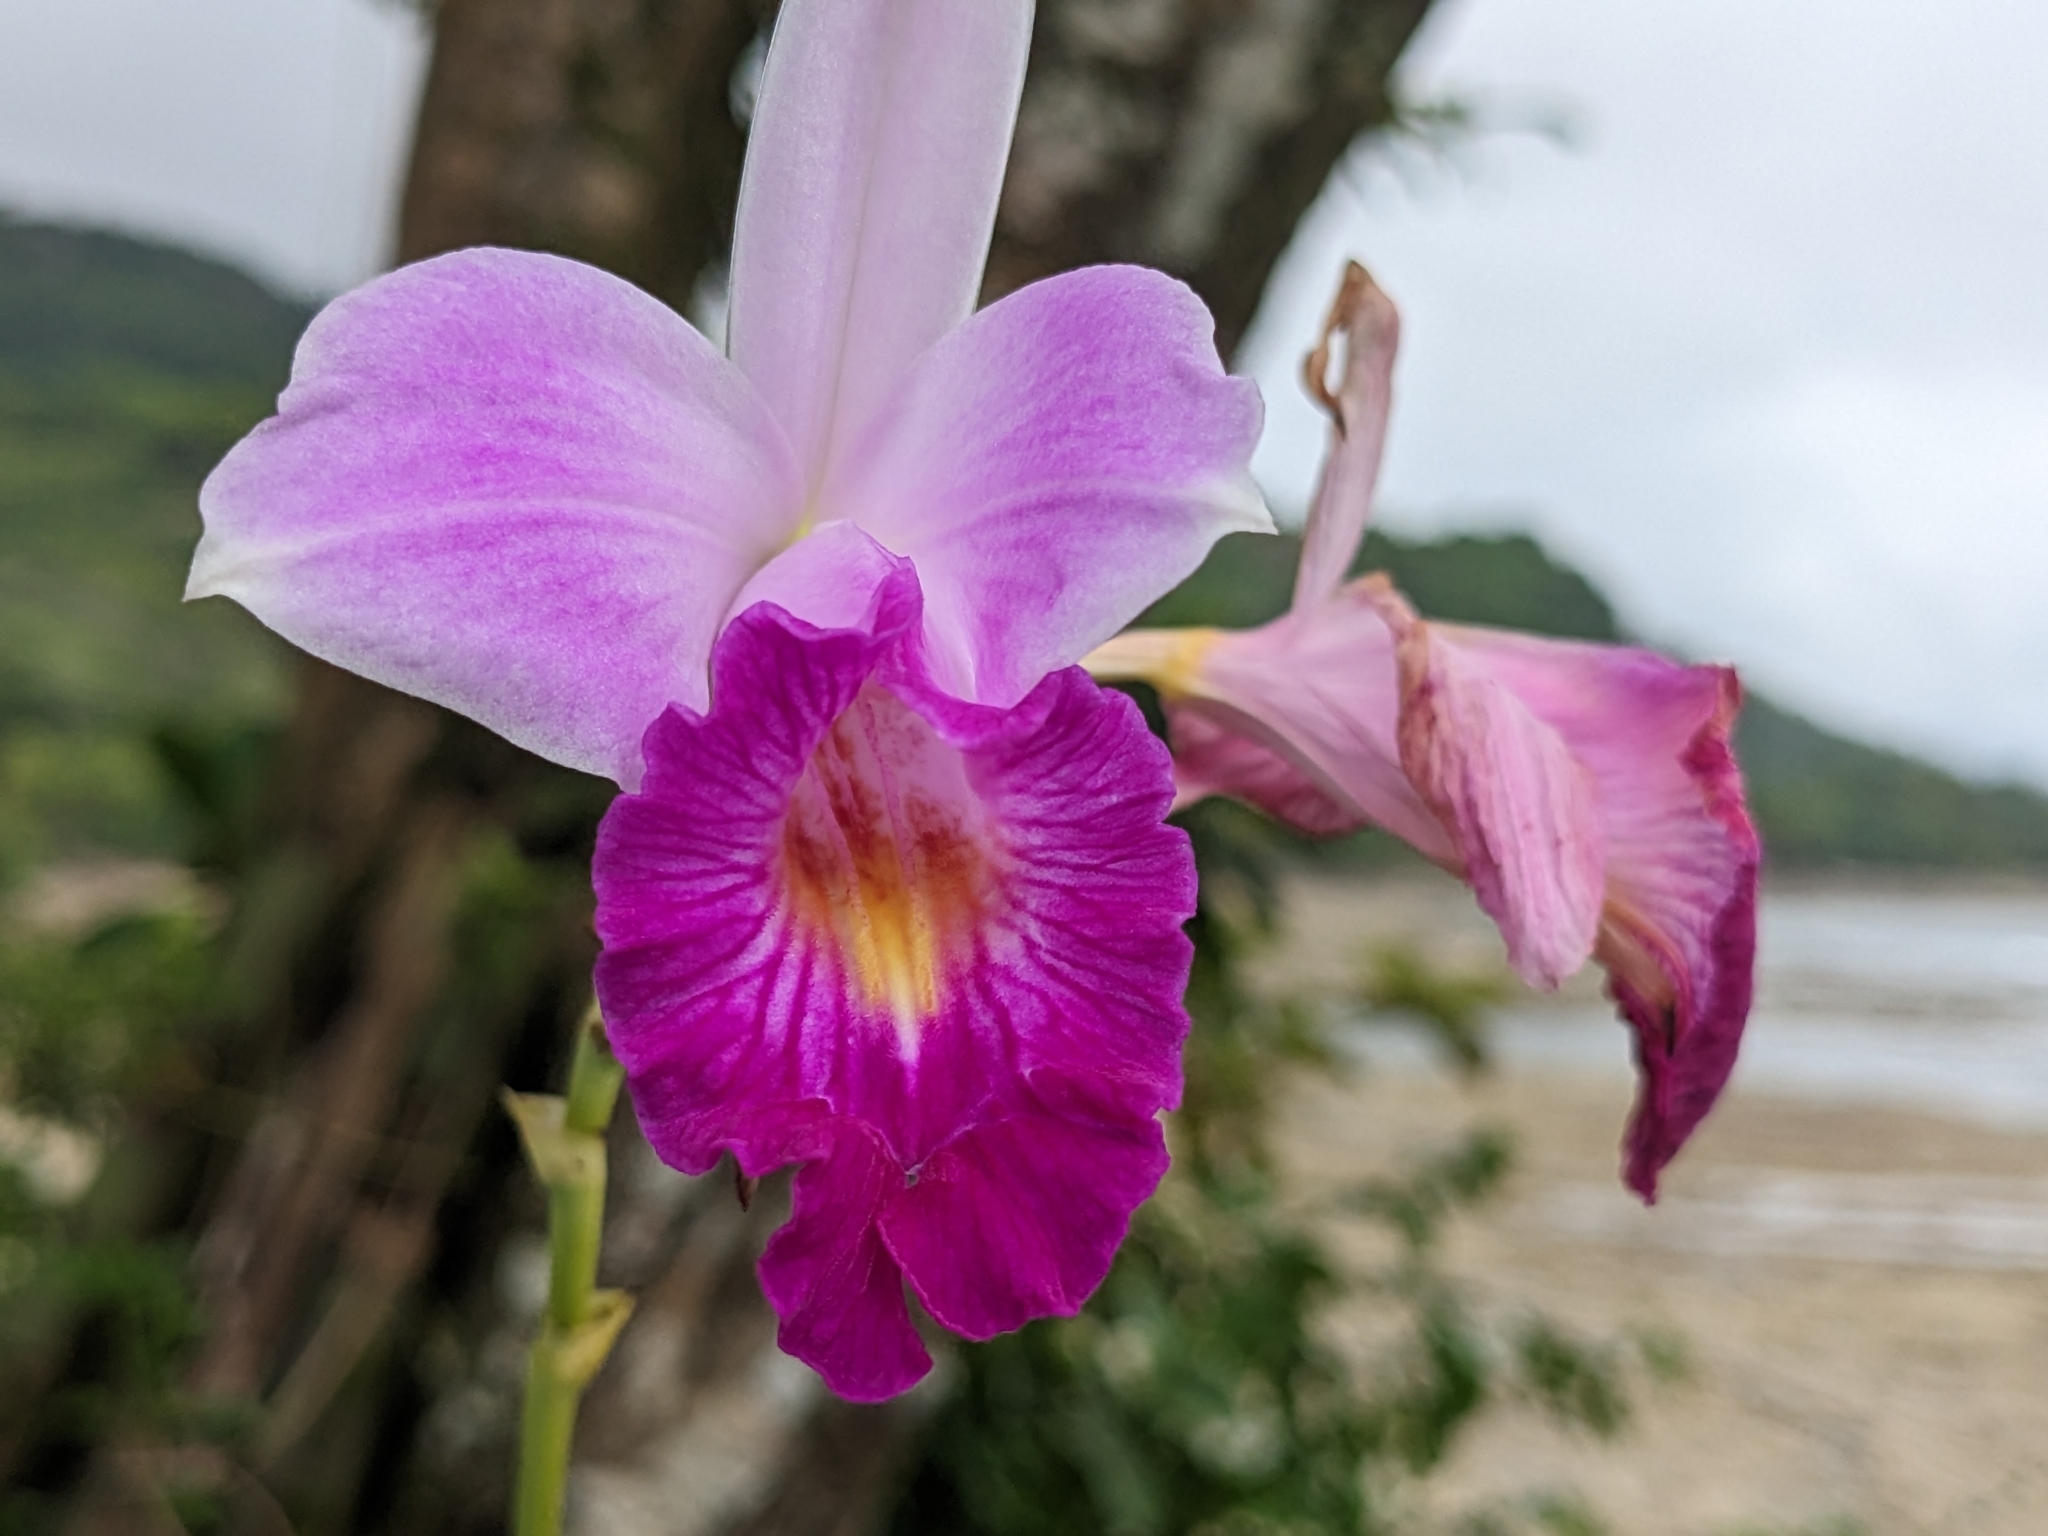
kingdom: Plantae
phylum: Tracheophyta
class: Liliopsida
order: Asparagales
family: Orchidaceae
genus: Arundina
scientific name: Arundina graminifolia
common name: Bamboo orchid
